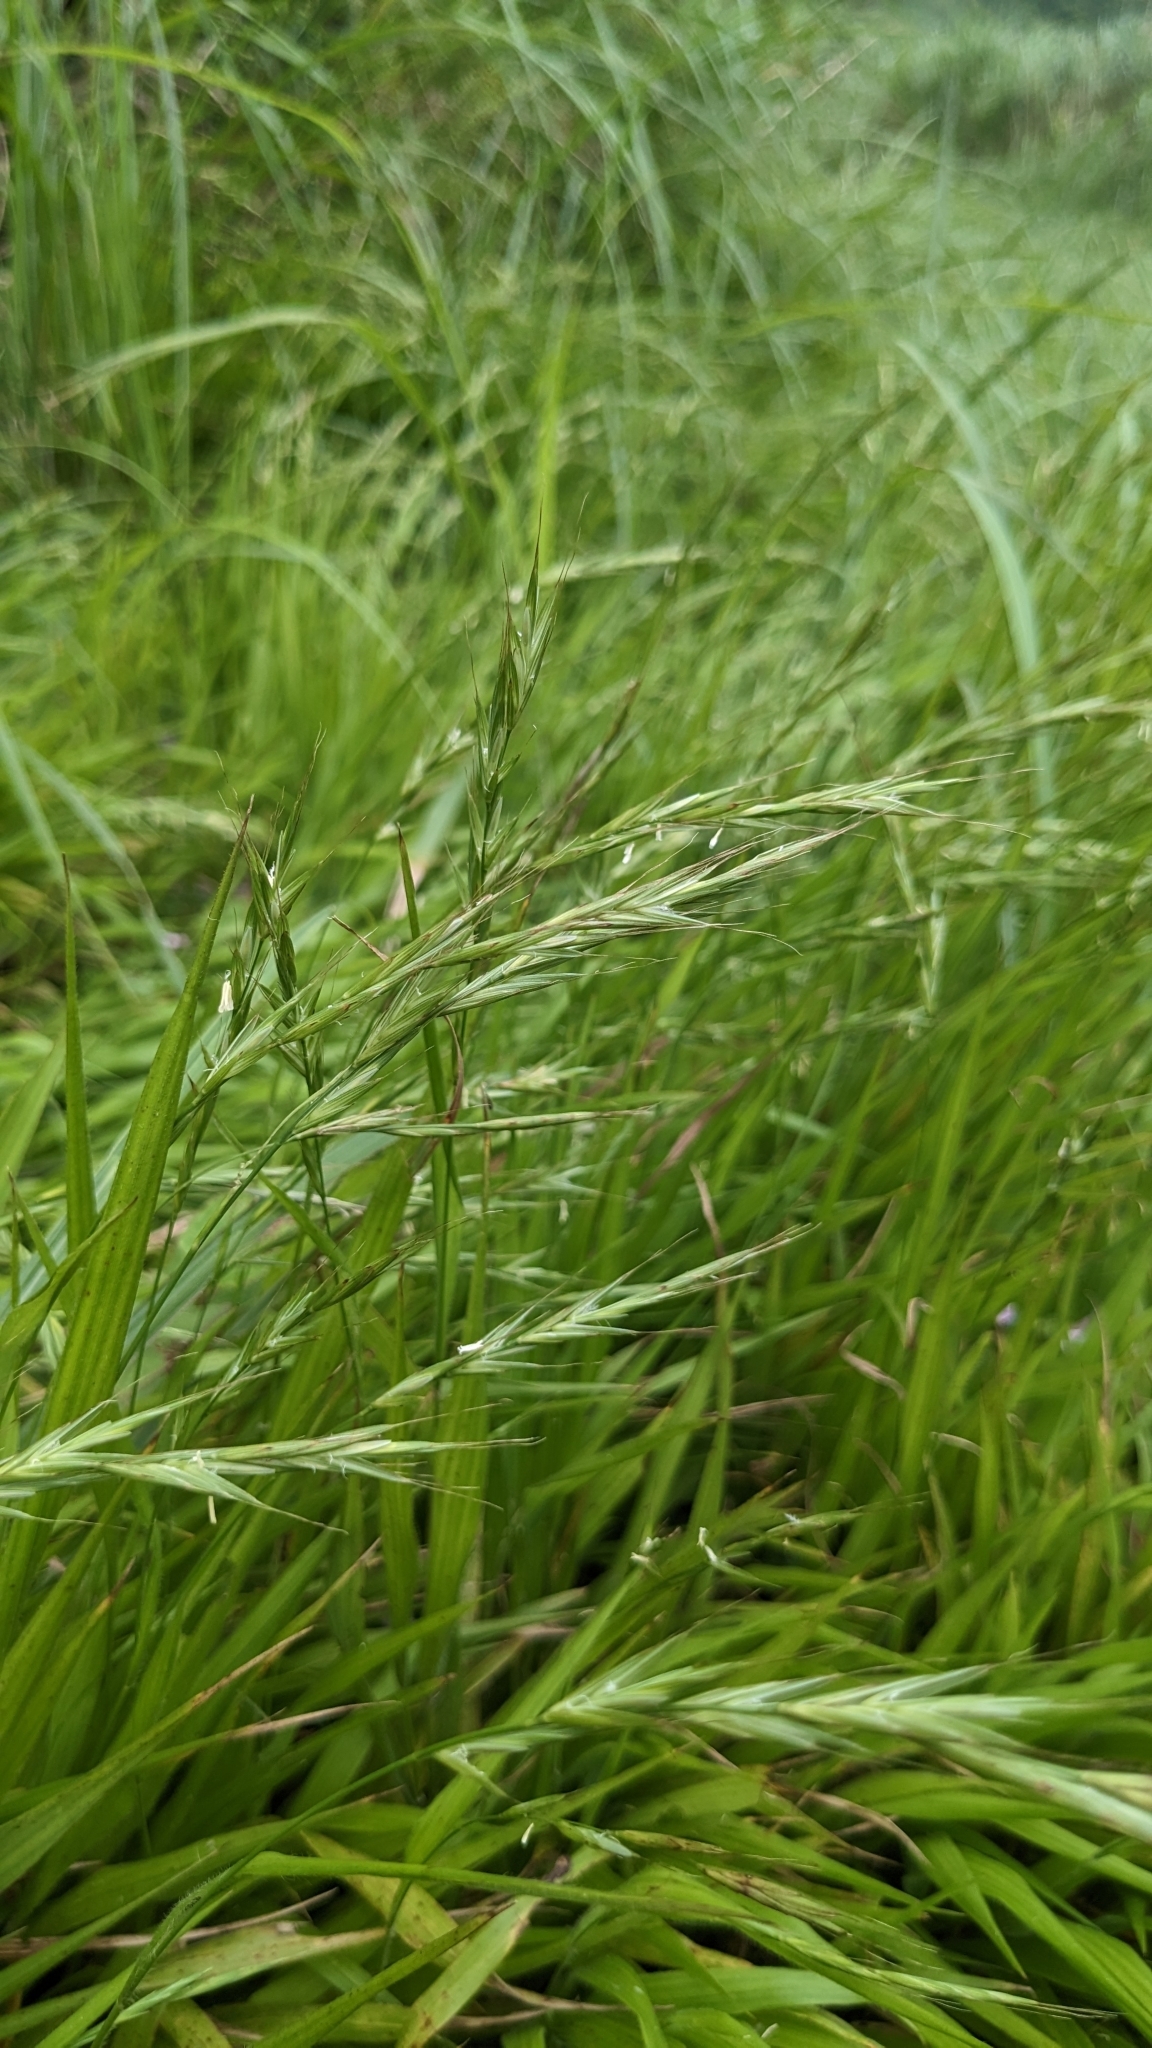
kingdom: Plantae
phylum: Tracheophyta
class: Liliopsida
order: Poales
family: Poaceae
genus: Brachypodium
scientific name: Brachypodium sylvaticum
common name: False-brome
